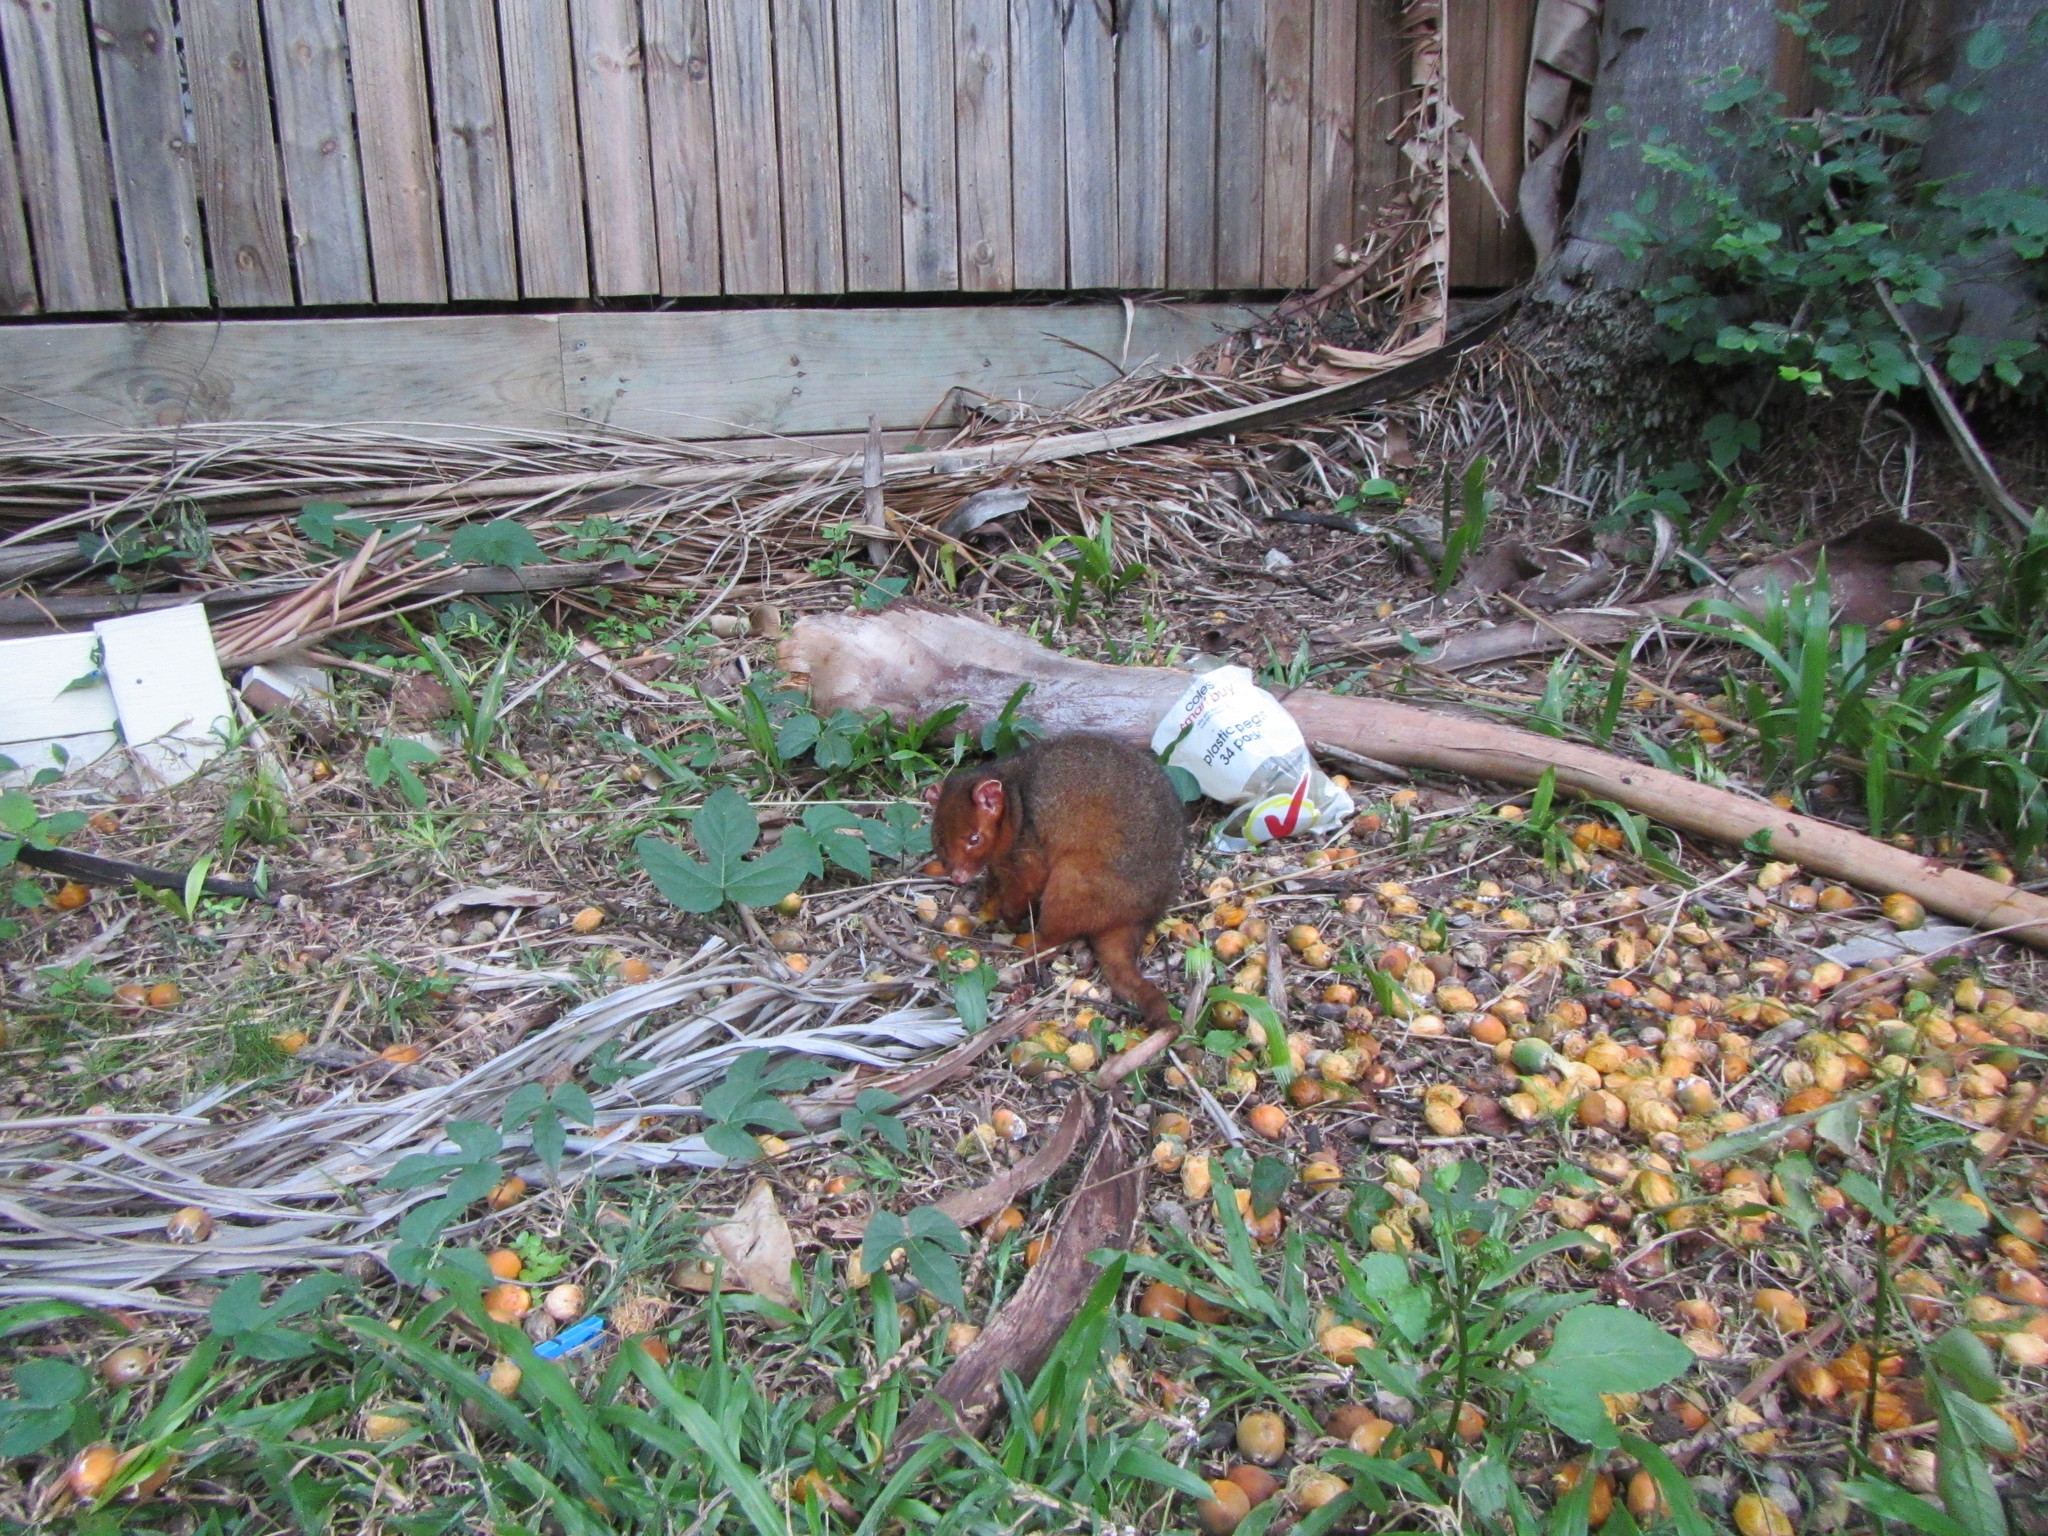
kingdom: Animalia
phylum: Chordata
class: Mammalia
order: Diprotodontia
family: Pseudocheiridae
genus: Pseudocheirus
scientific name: Pseudocheirus peregrinus
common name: Common ringtail possum
